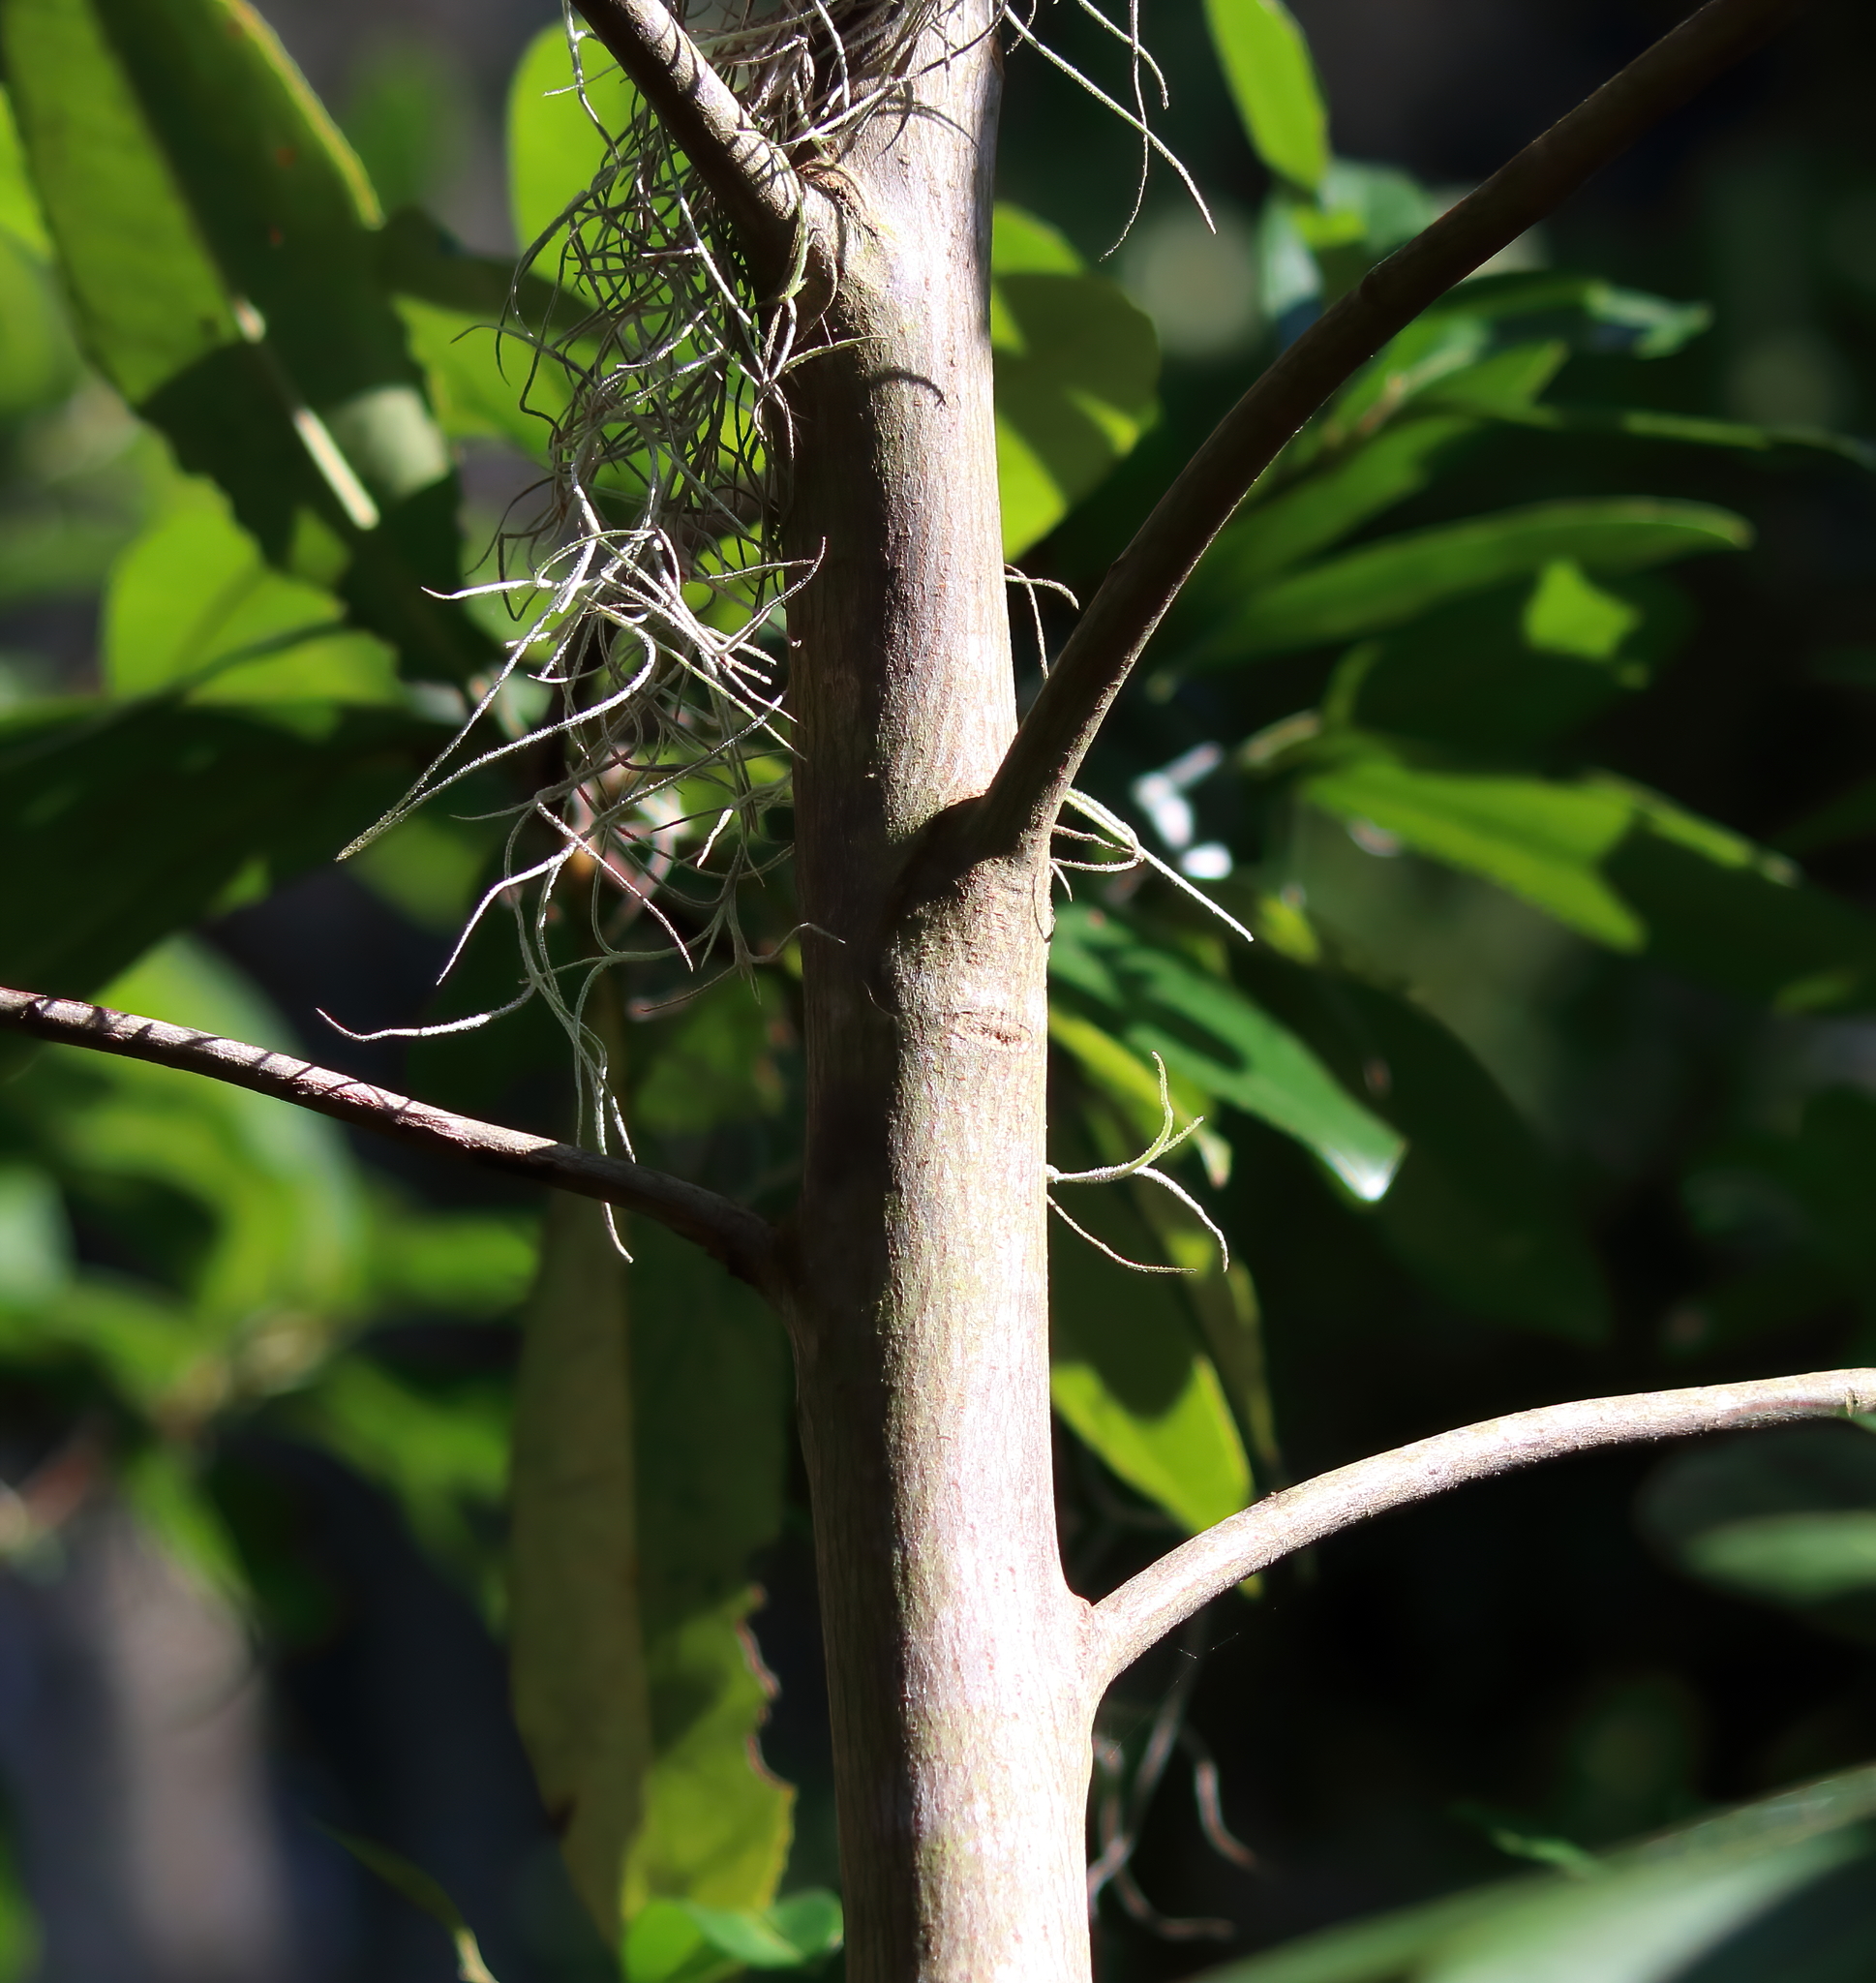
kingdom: Plantae
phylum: Tracheophyta
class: Magnoliopsida
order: Ericales
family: Theaceae
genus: Gordonia
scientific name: Gordonia lasianthus
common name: Loblolly bay
